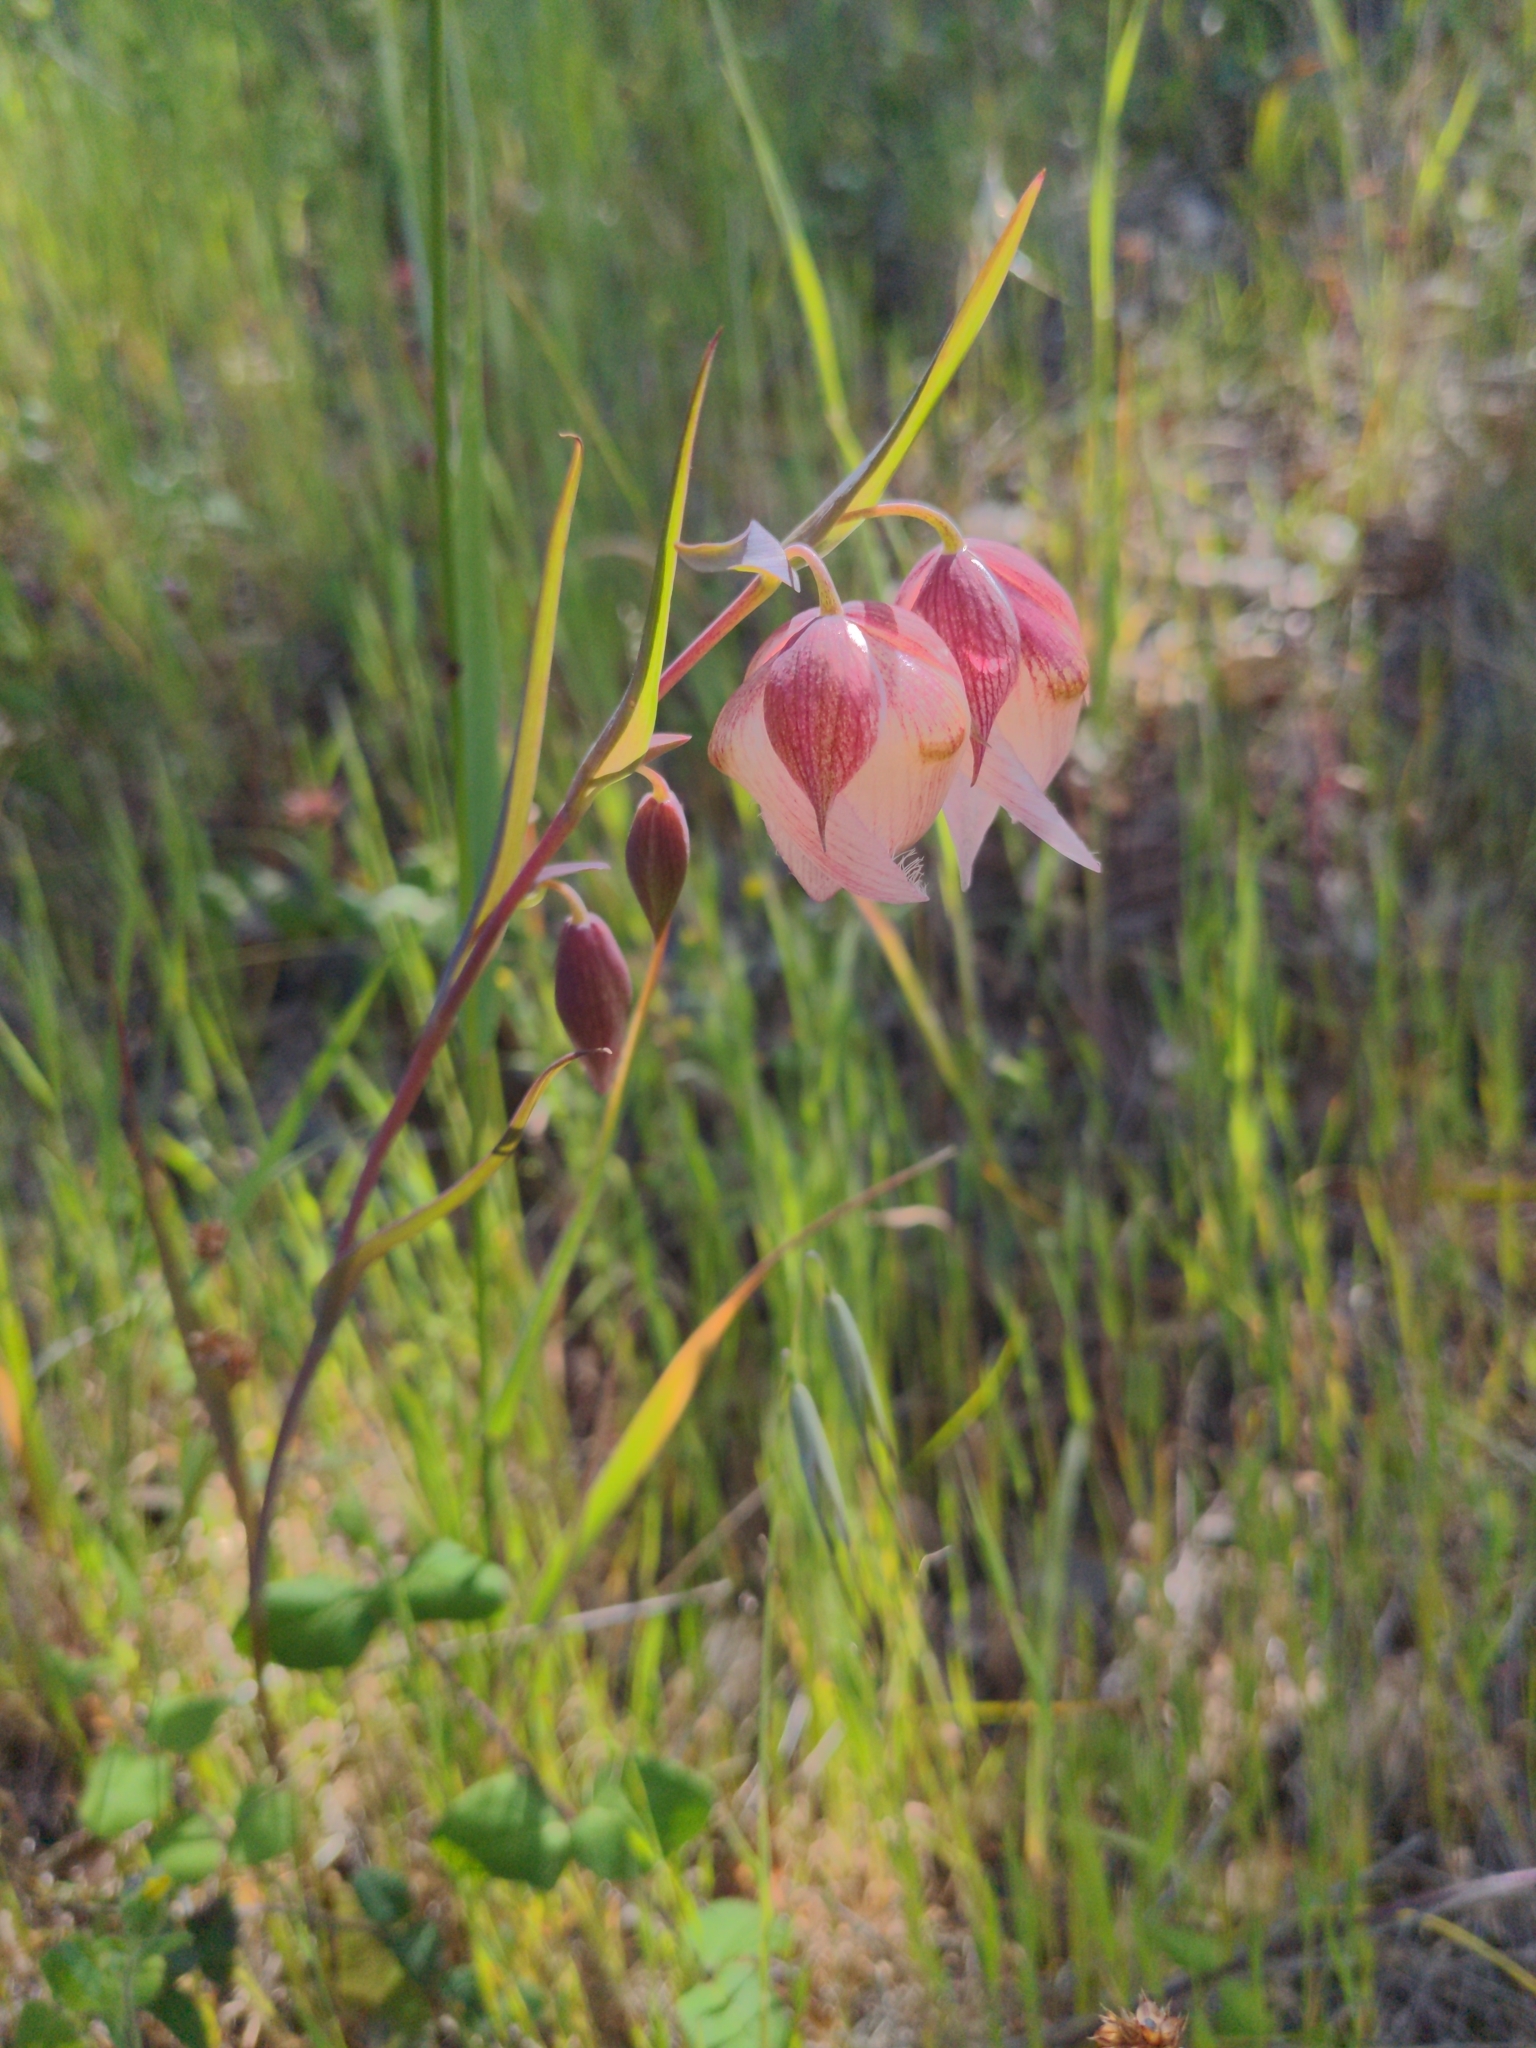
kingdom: Plantae
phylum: Tracheophyta
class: Liliopsida
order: Liliales
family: Liliaceae
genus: Calochortus
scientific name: Calochortus albus
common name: Fairy-lantern
